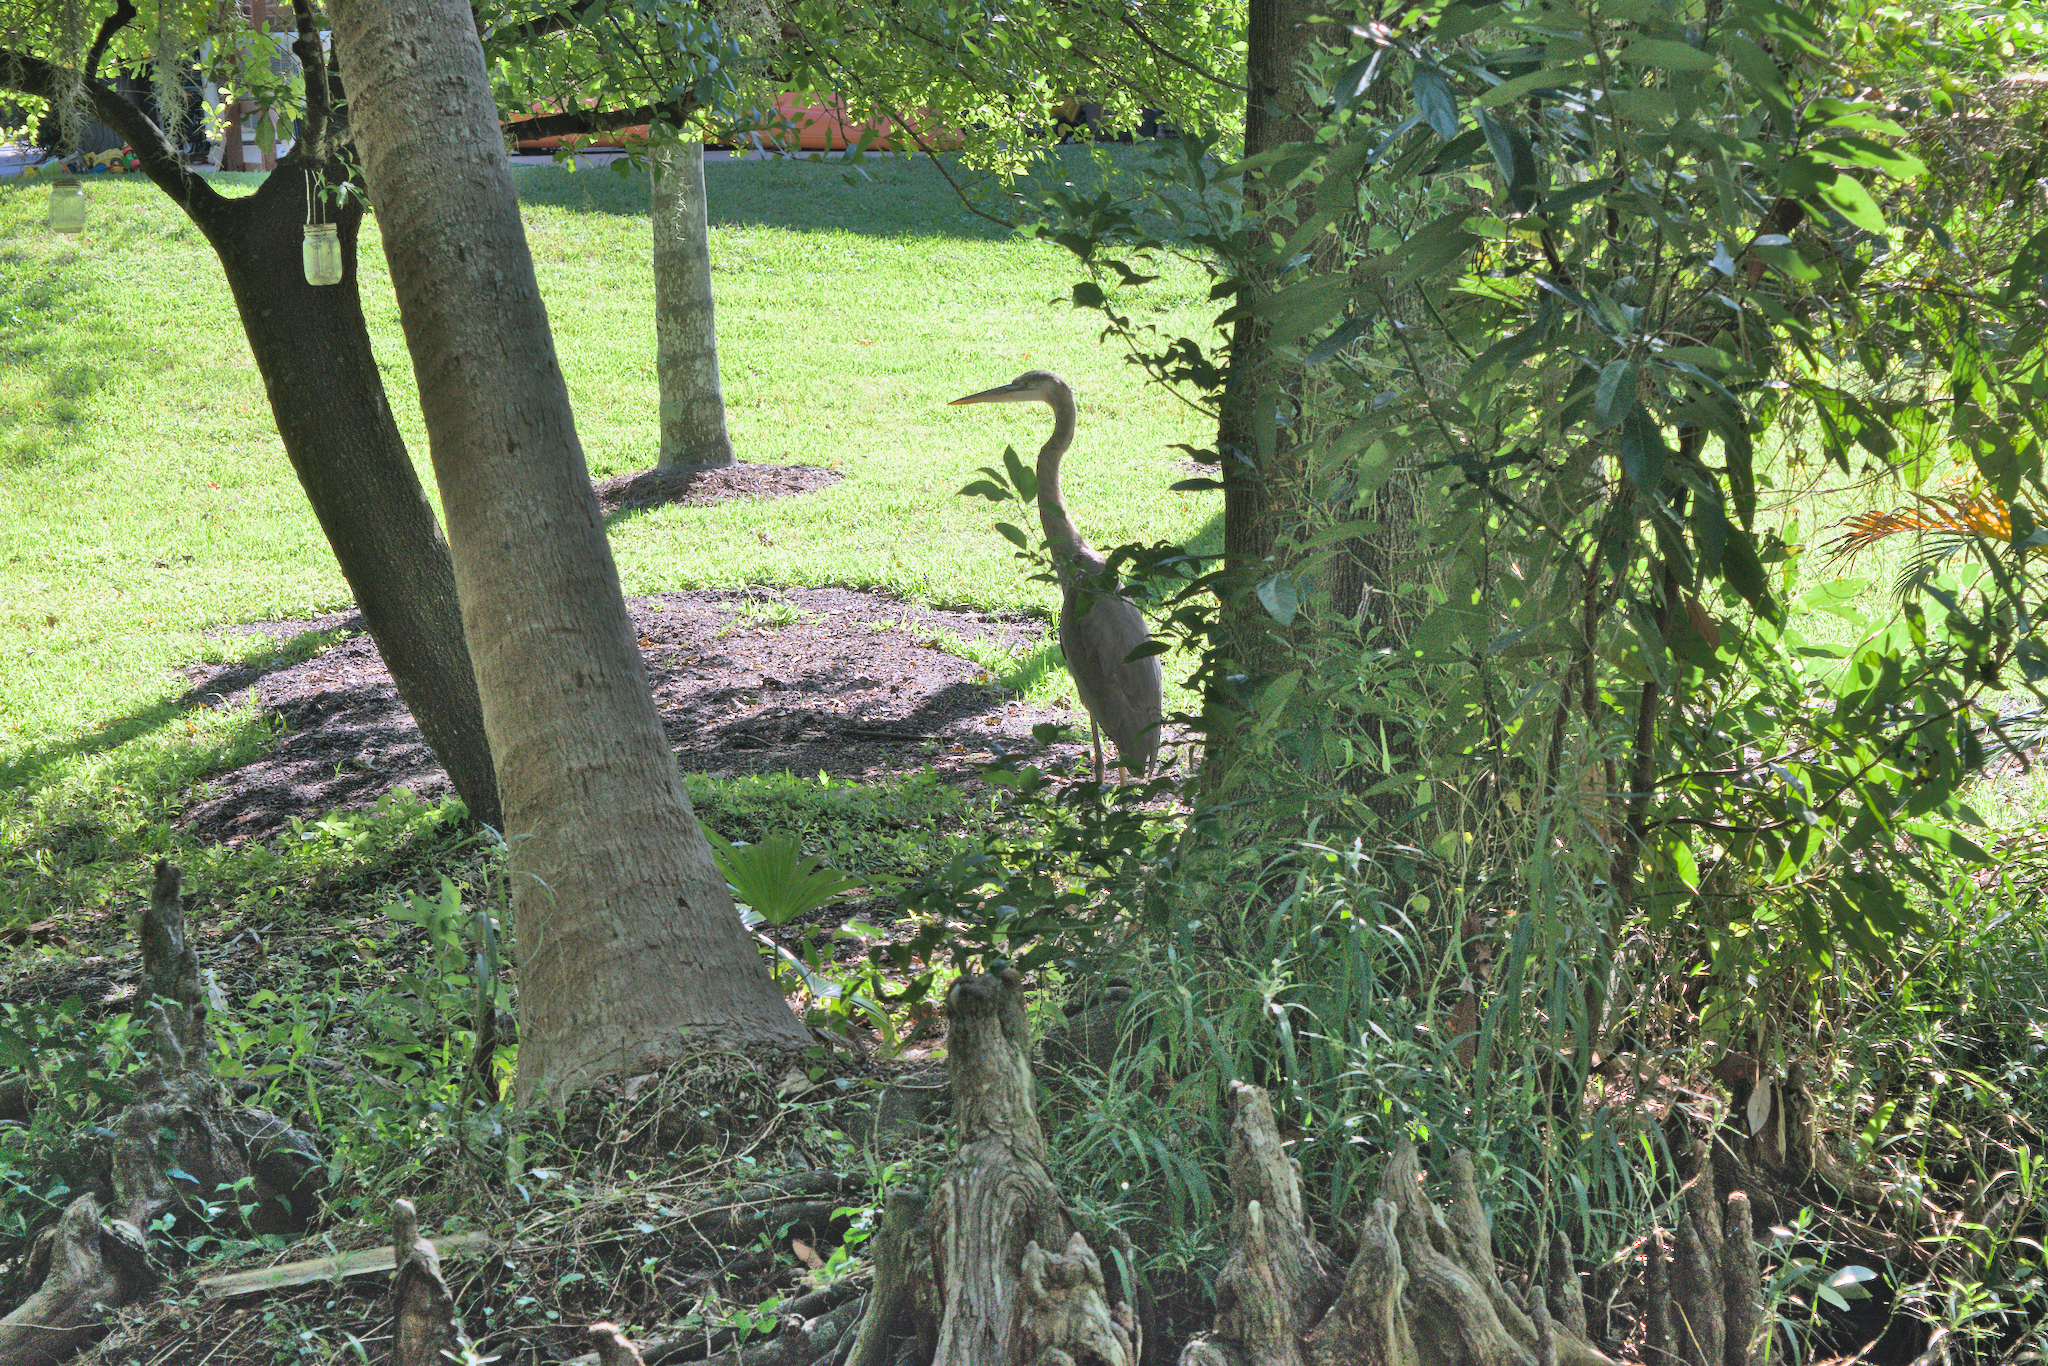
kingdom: Animalia
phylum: Chordata
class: Aves
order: Pelecaniformes
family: Ardeidae
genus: Ardea
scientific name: Ardea herodias
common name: Great blue heron
